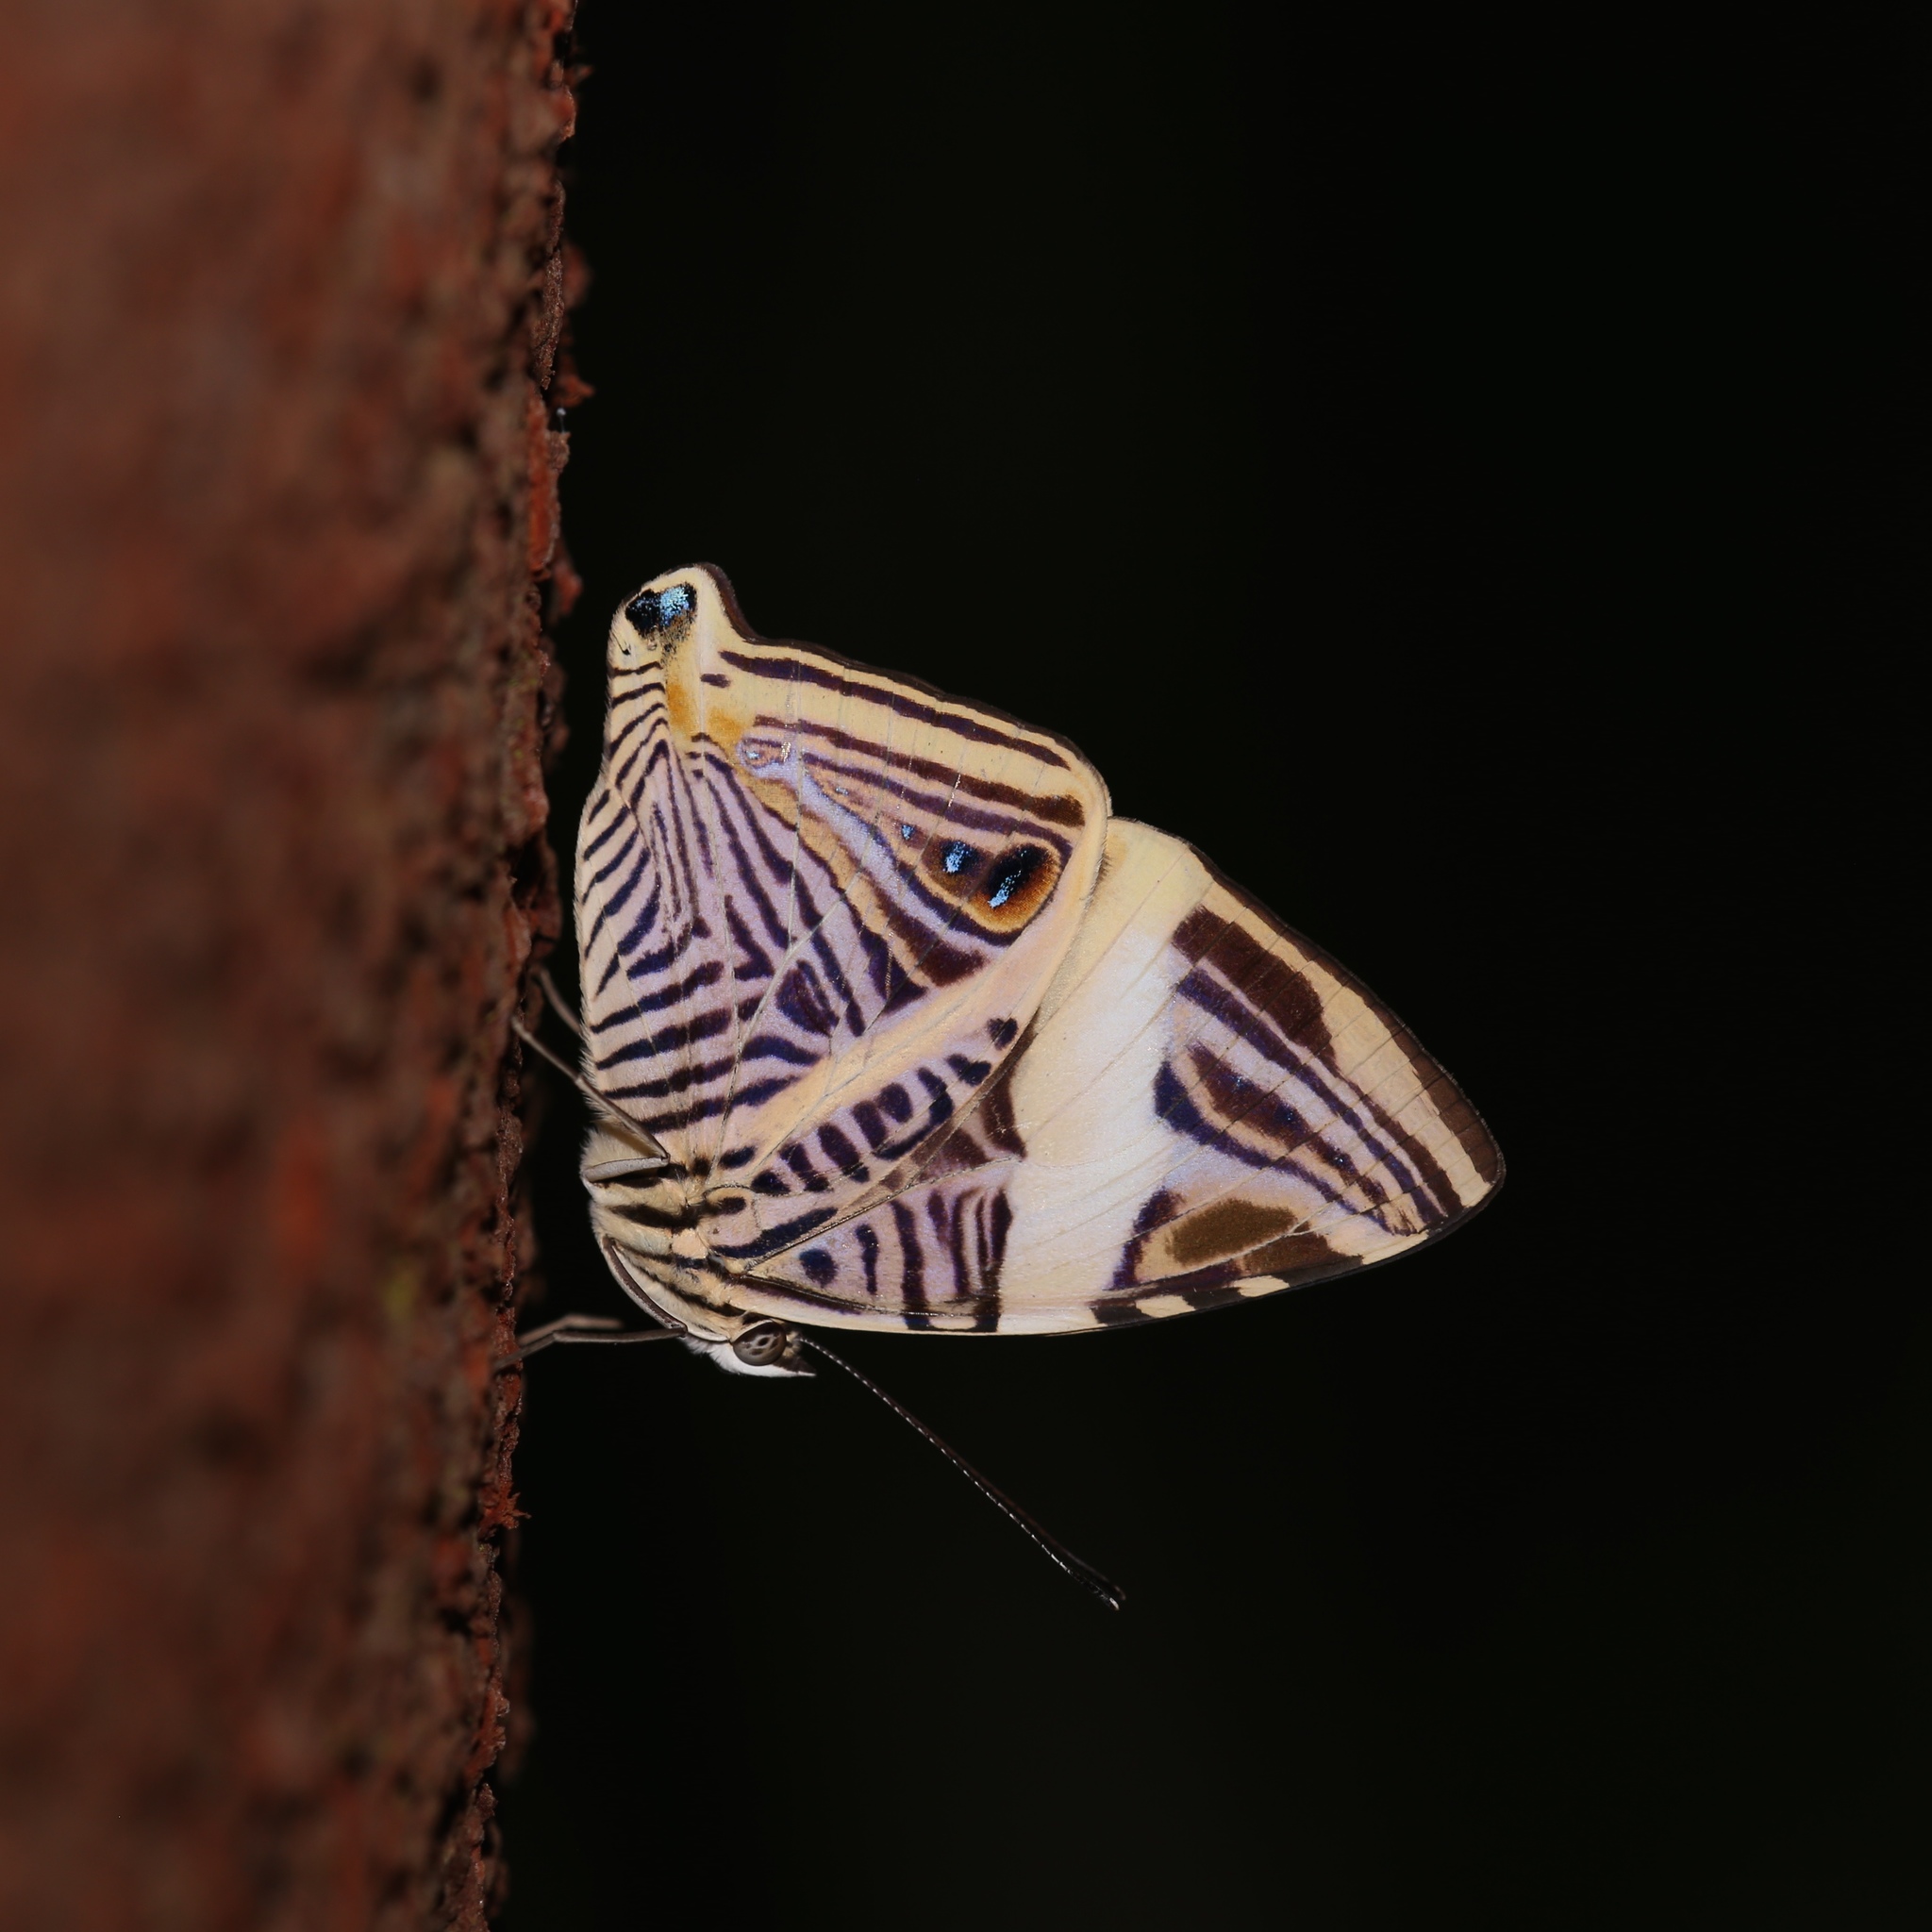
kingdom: Animalia
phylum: Arthropoda
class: Insecta
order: Lepidoptera
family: Nymphalidae
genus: Colobura
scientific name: Colobura dirce
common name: Dirce beauty
